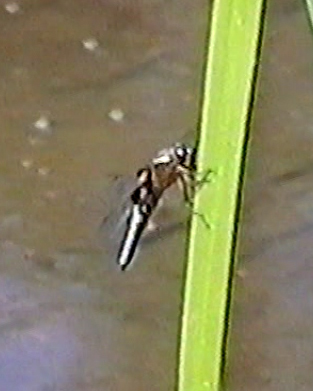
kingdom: Animalia
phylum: Arthropoda
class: Insecta
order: Odonata
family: Libellulidae
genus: Libellula
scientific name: Libellula depressa
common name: Broad-bodied chaser
